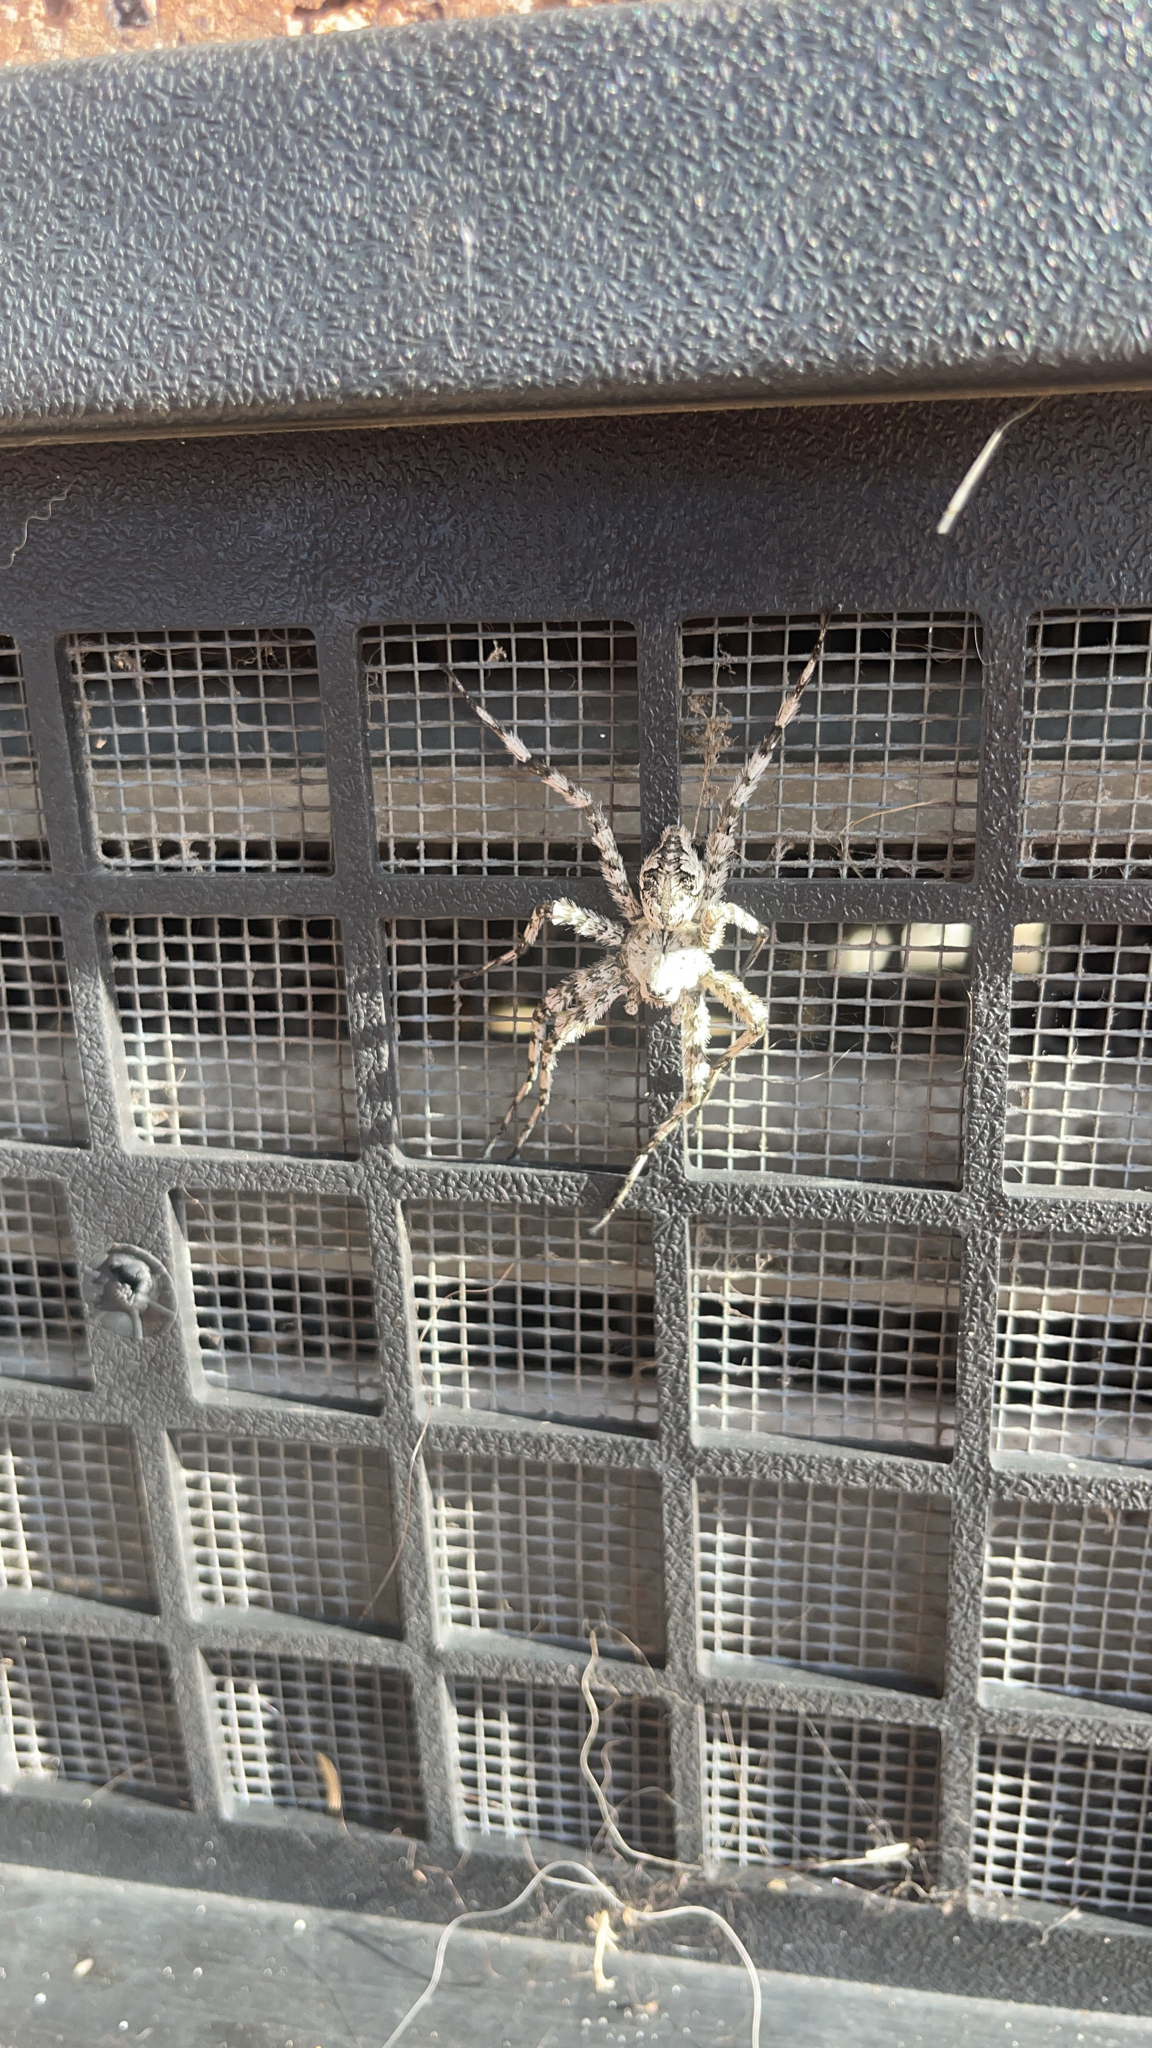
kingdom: Animalia
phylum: Arthropoda
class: Arachnida
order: Araneae
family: Pisauridae
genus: Dolomedes
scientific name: Dolomedes albineus
